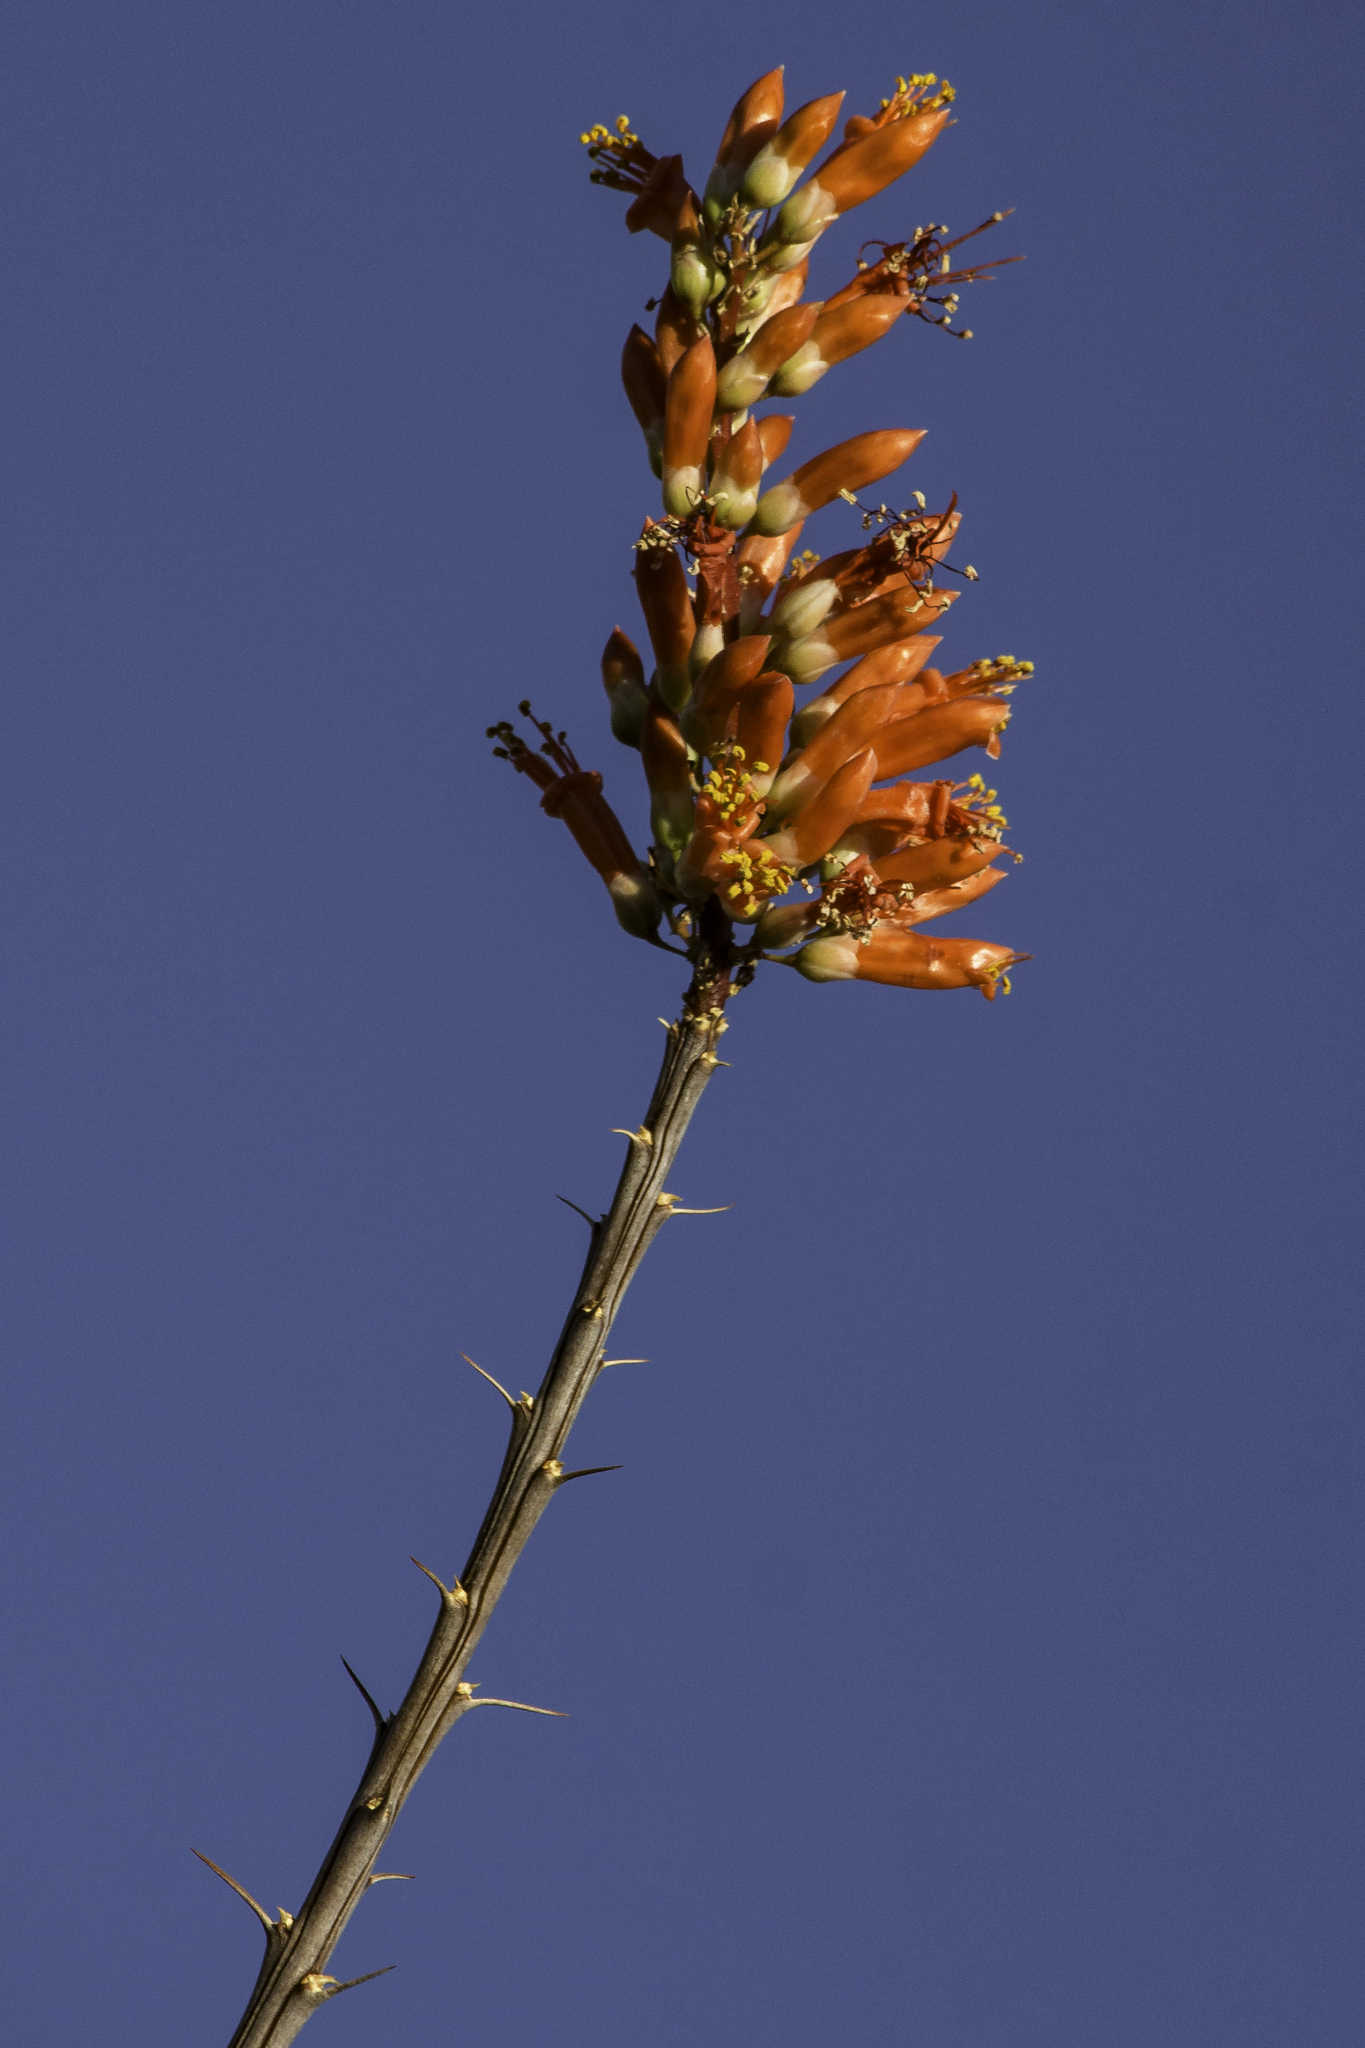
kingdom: Plantae
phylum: Tracheophyta
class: Magnoliopsida
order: Ericales
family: Fouquieriaceae
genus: Fouquieria
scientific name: Fouquieria splendens
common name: Vine-cactus
